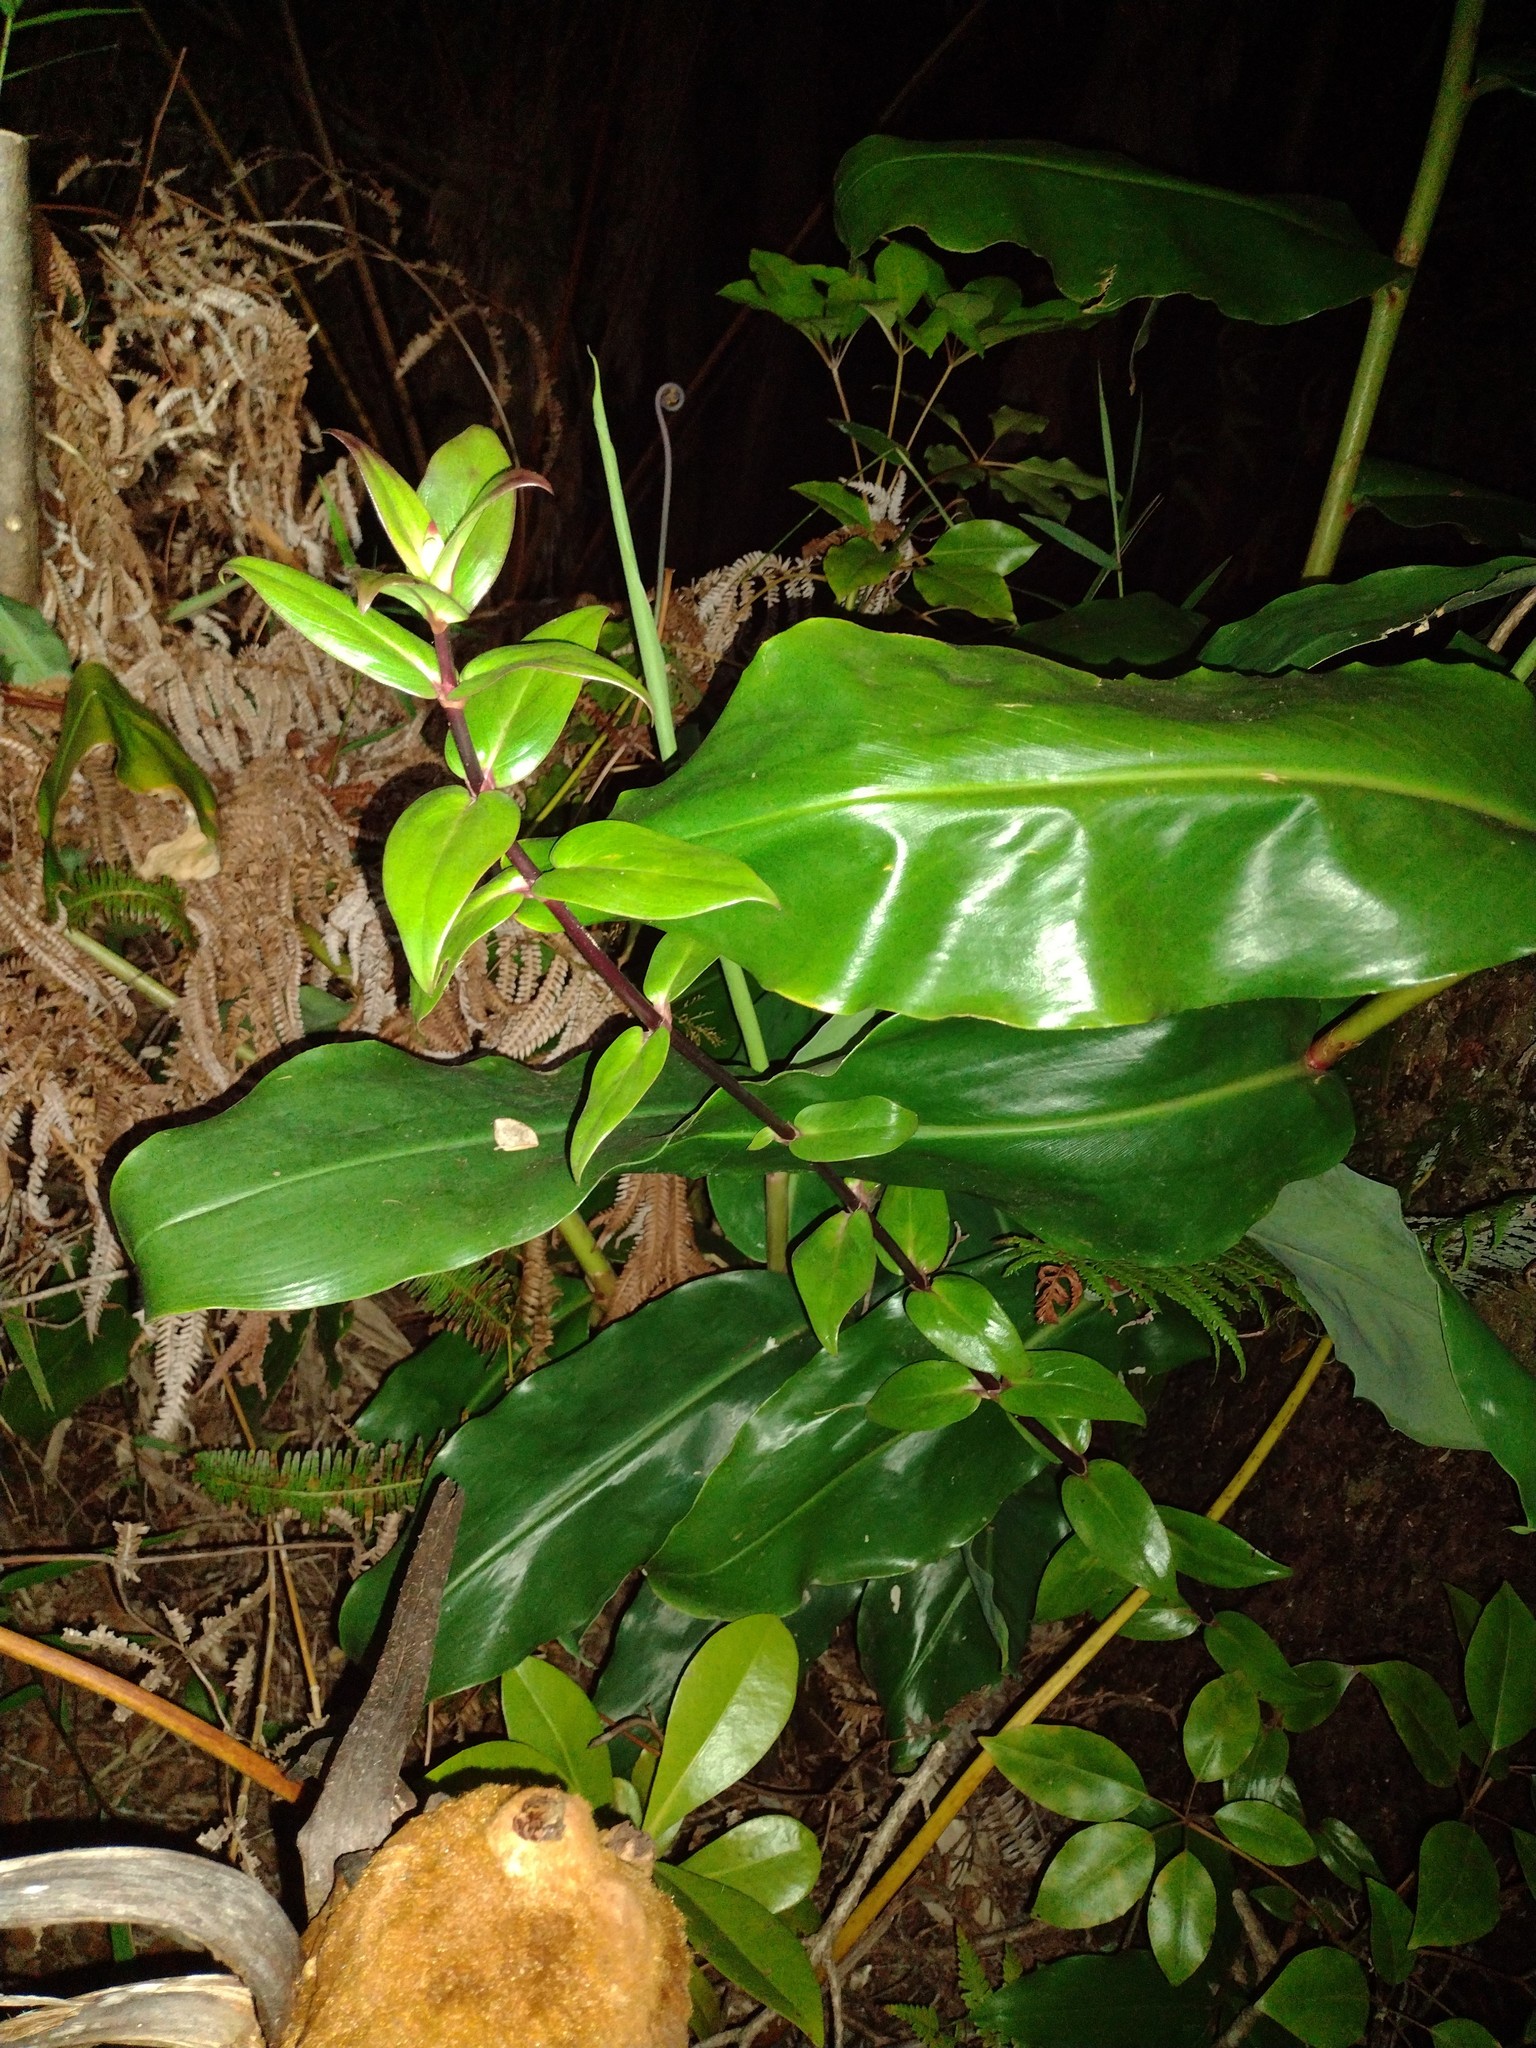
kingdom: Plantae
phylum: Tracheophyta
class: Magnoliopsida
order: Gentianales
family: Rubiaceae
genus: Kadua
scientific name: Kadua centranthoides
